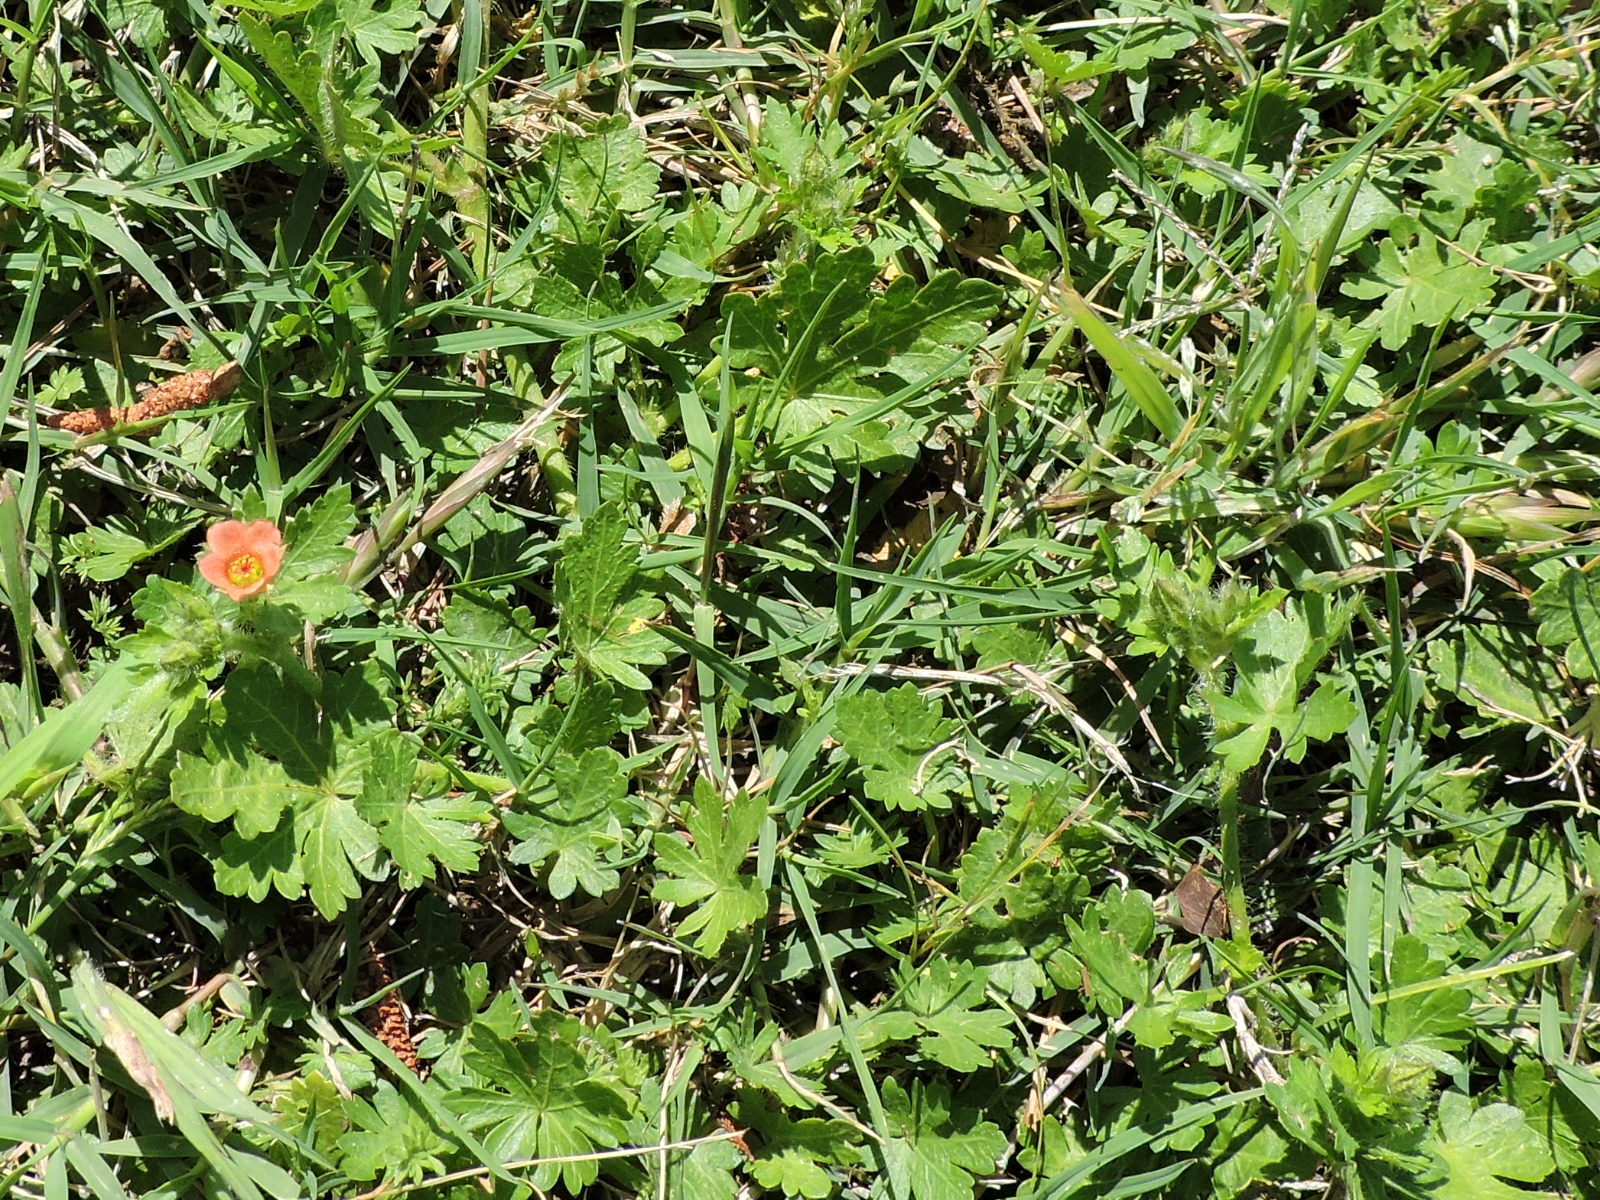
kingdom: Plantae
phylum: Tracheophyta
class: Magnoliopsida
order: Malvales
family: Malvaceae
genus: Modiola
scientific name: Modiola caroliniana
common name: Carolina bristlemallow
